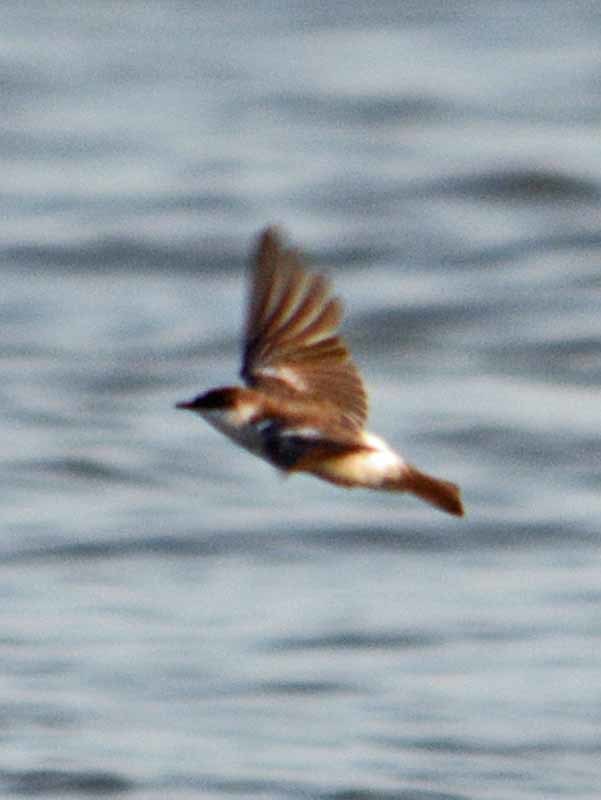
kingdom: Animalia
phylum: Chordata
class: Aves
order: Passeriformes
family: Hirundinidae
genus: Tachycineta
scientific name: Tachycineta albilinea
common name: Mangrove swallow
